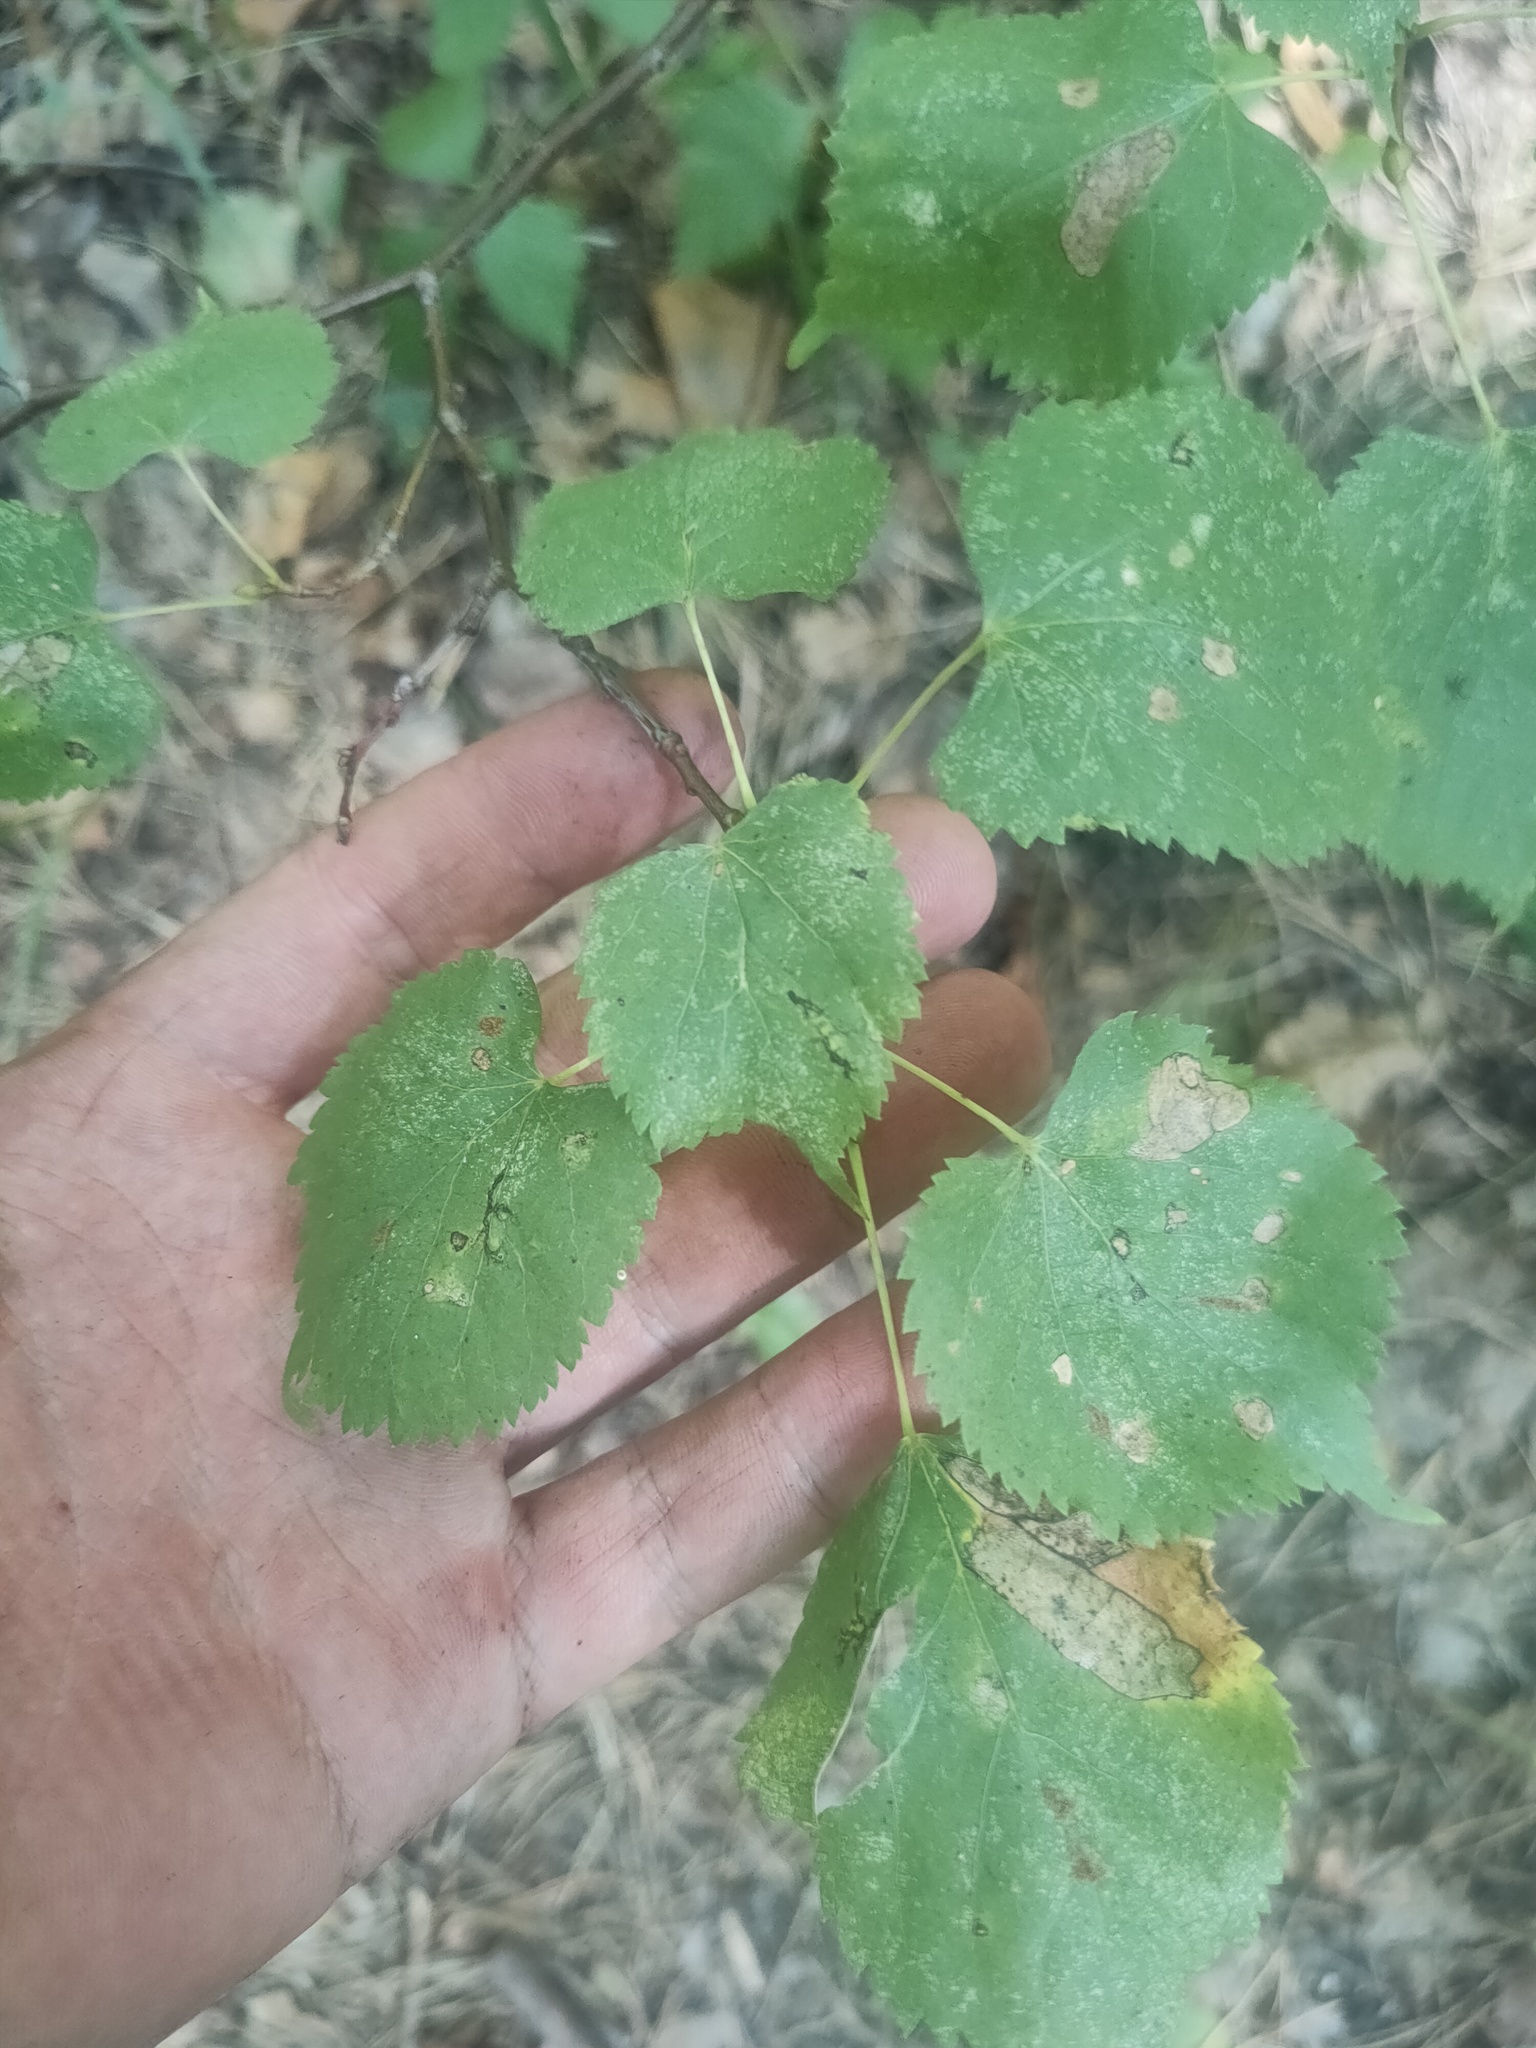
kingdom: Plantae
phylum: Tracheophyta
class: Magnoliopsida
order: Malvales
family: Malvaceae
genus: Tilia
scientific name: Tilia cordata
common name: Small-leaved lime
